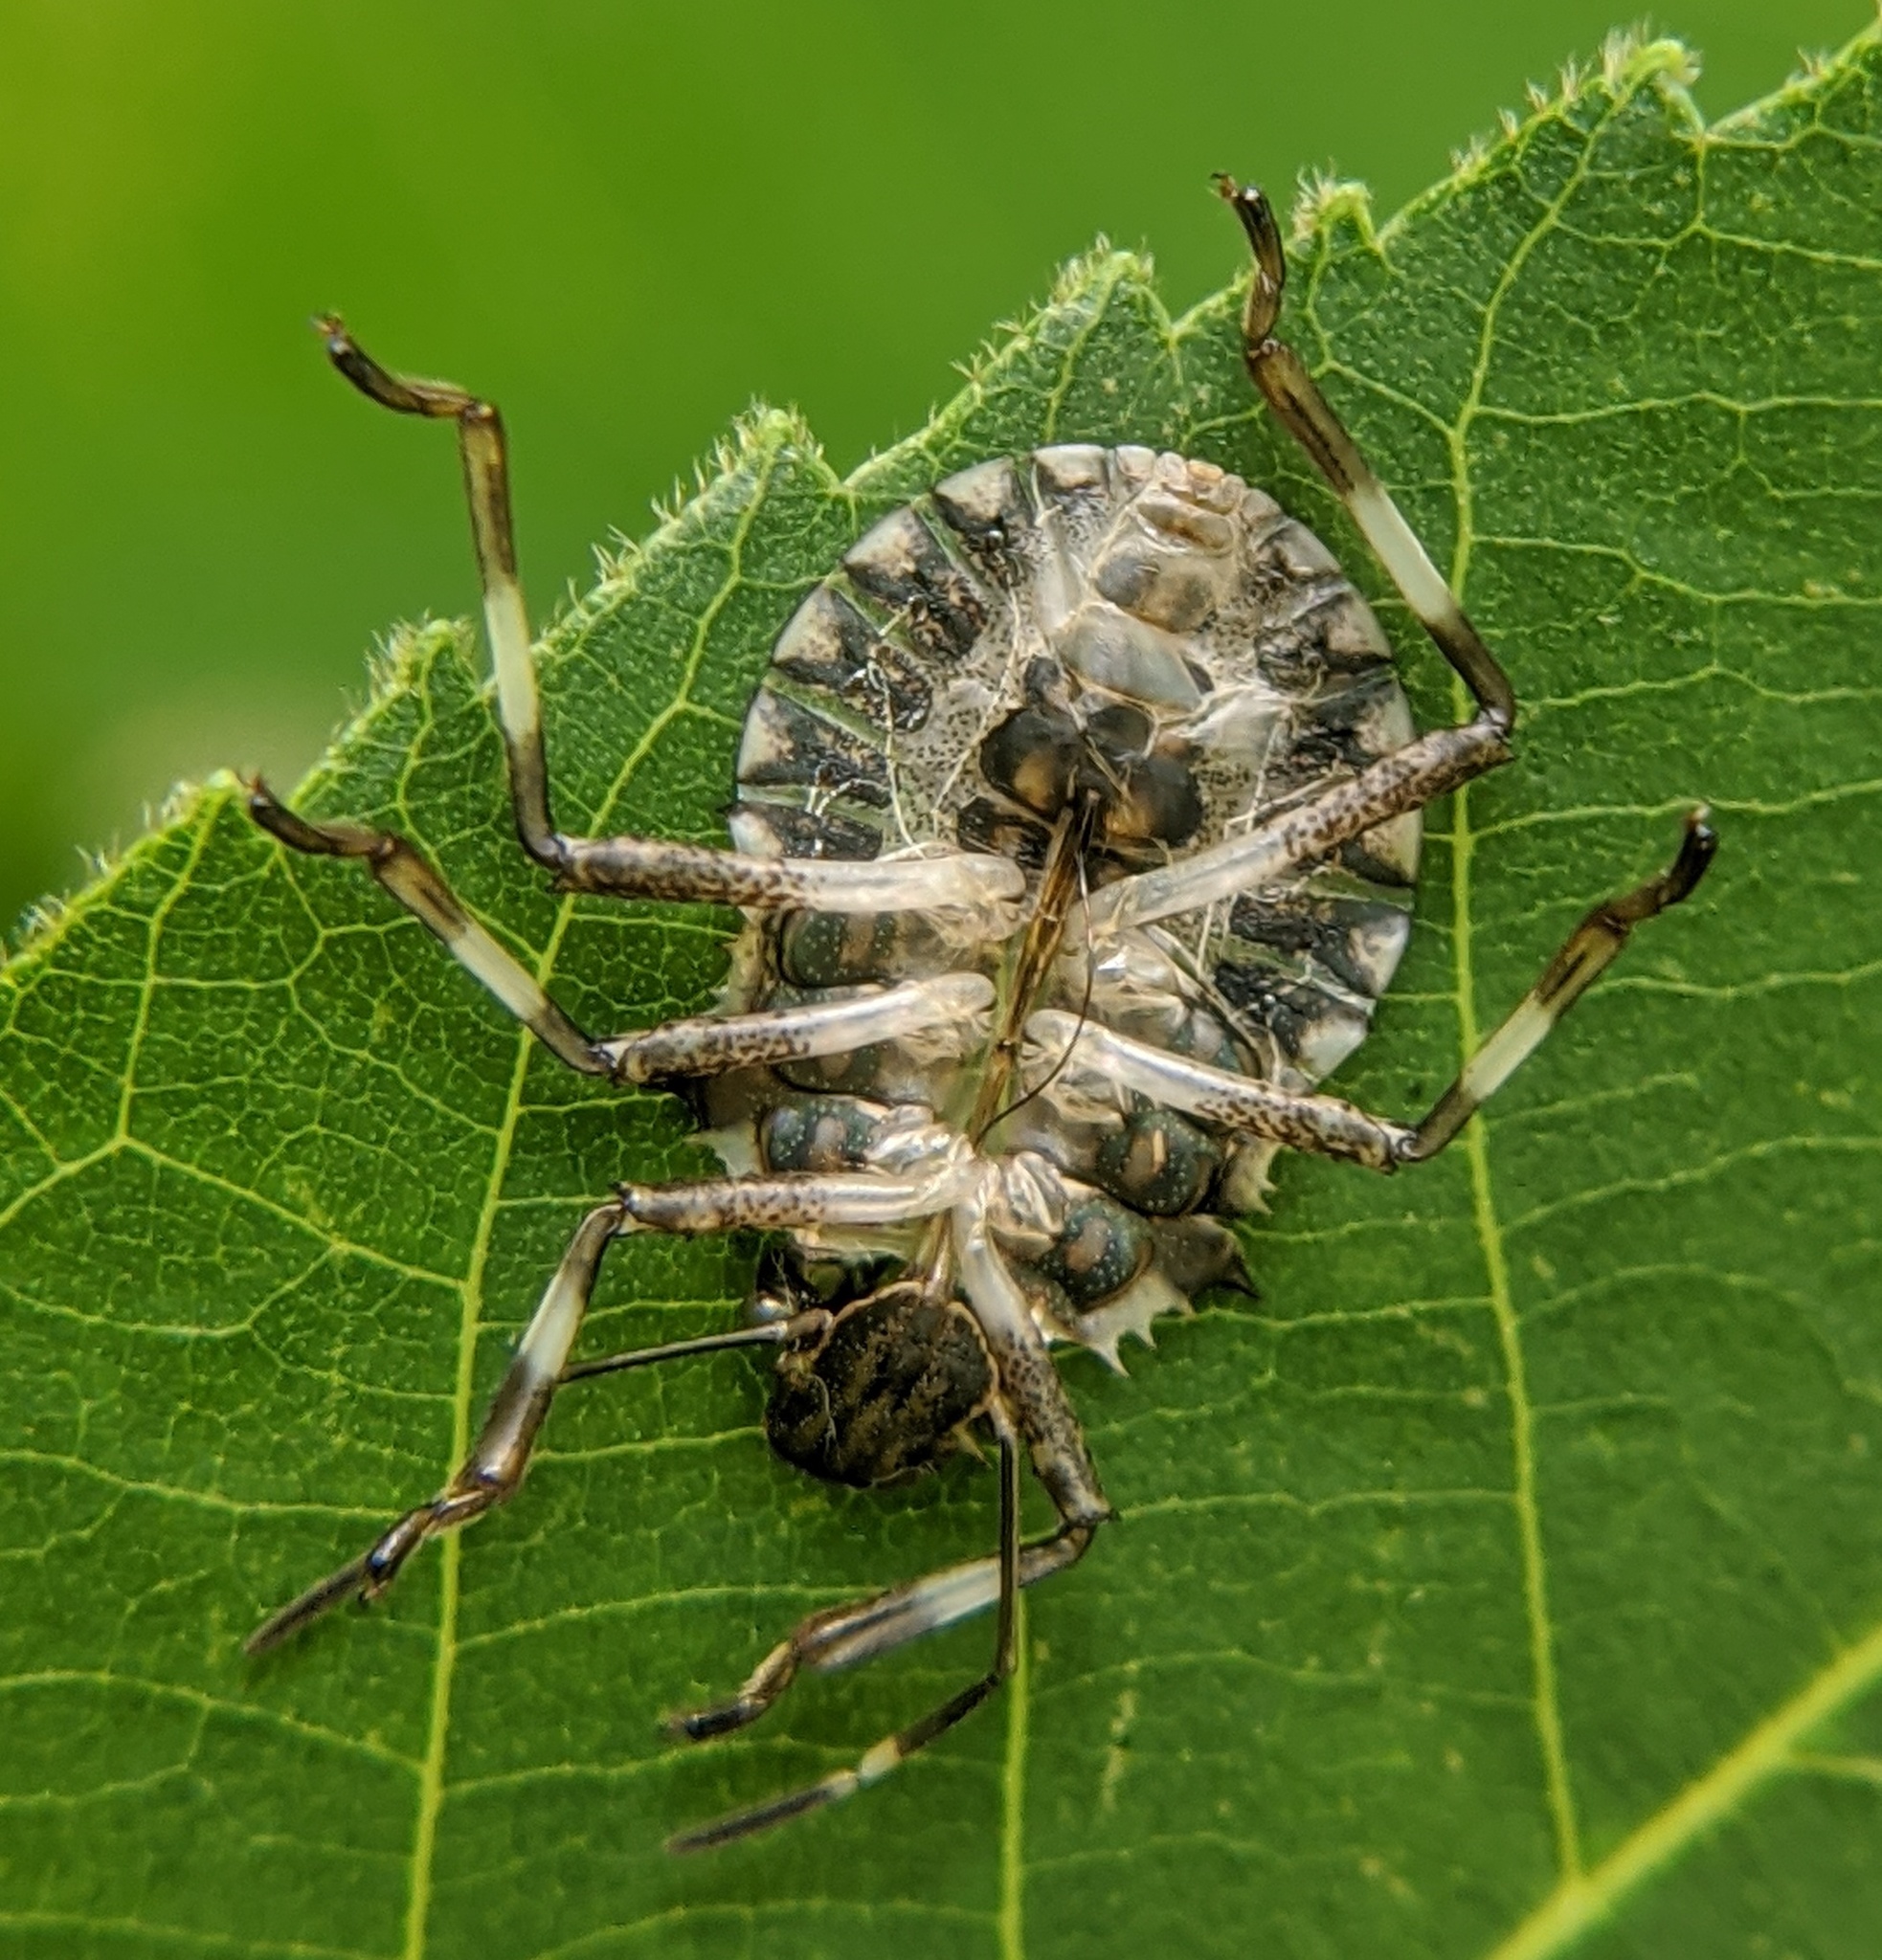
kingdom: Animalia
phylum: Arthropoda
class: Insecta
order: Hemiptera
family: Pentatomidae
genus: Halyomorpha
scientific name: Halyomorpha halys
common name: Brown marmorated stink bug
